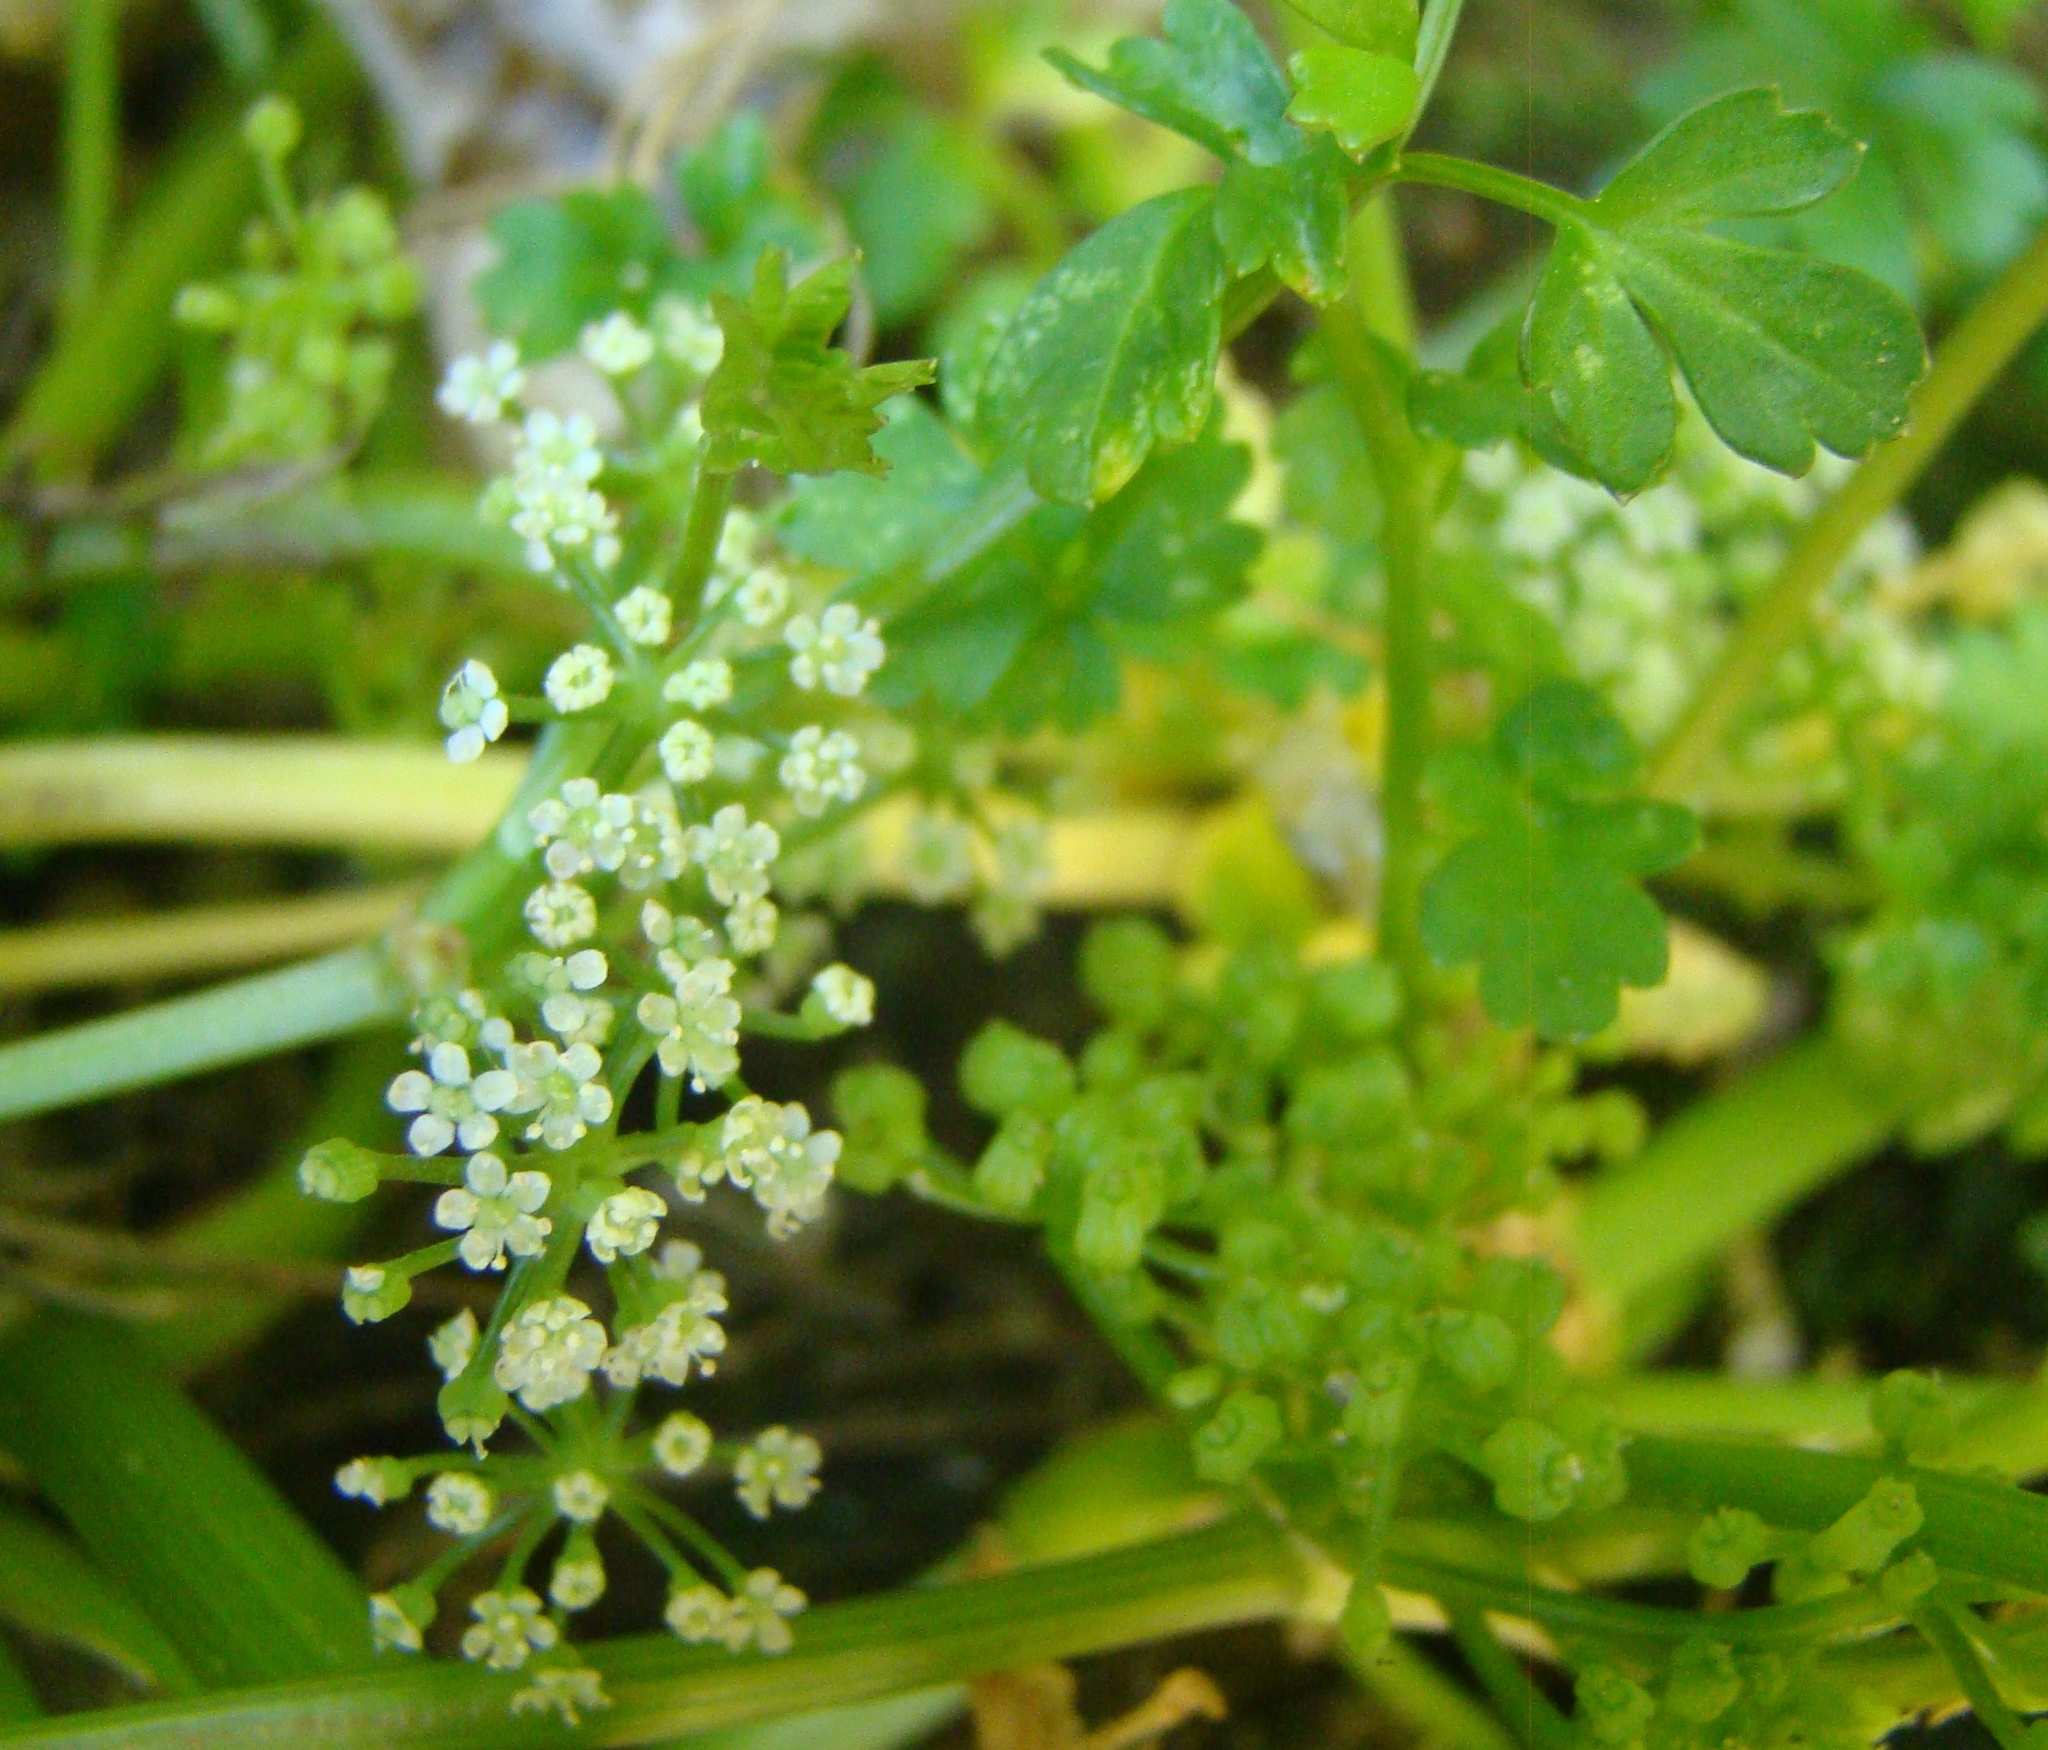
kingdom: Plantae
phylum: Tracheophyta
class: Magnoliopsida
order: Apiales
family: Apiaceae
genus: Apium
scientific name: Apium prostratum
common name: Prostrate marshwort
